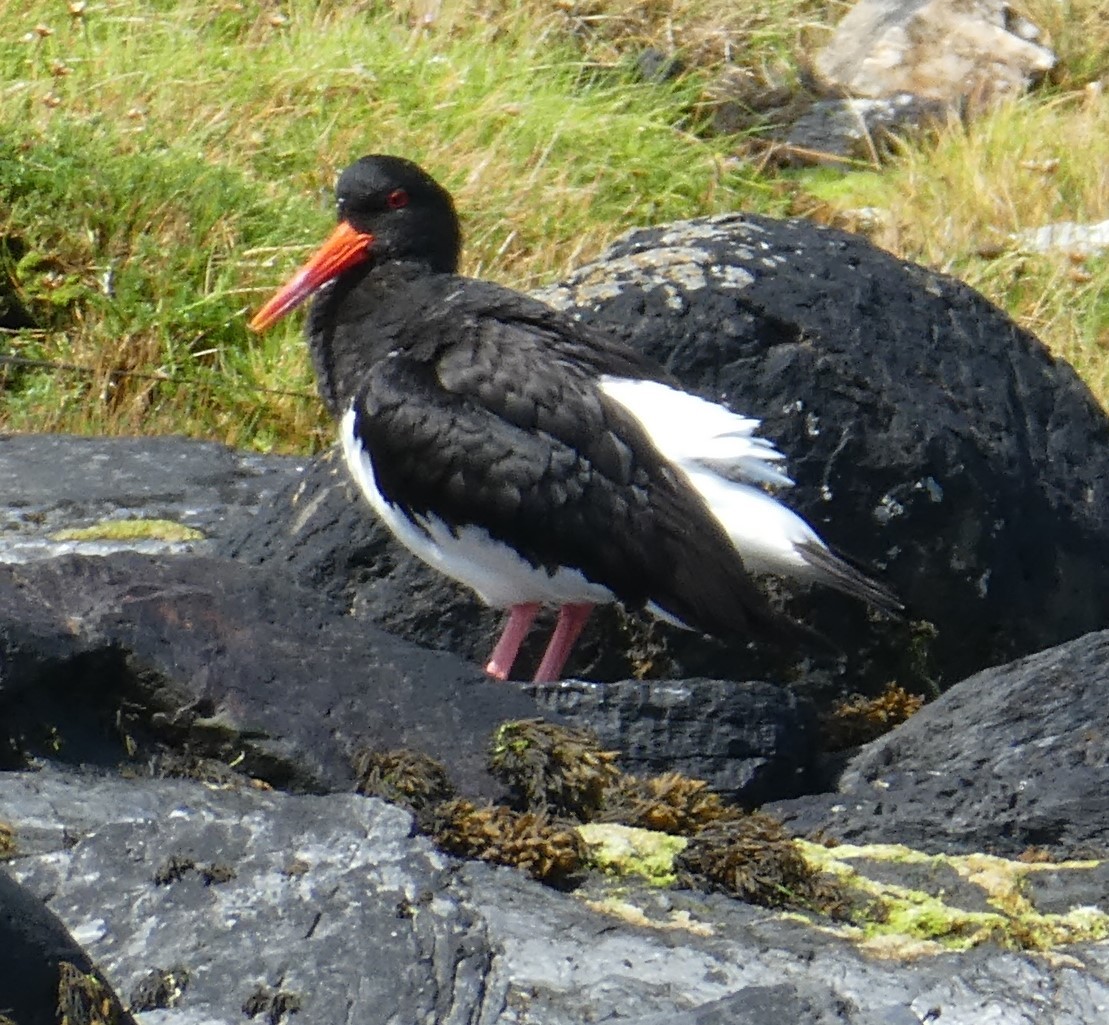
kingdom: Animalia
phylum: Chordata
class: Aves
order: Charadriiformes
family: Haematopodidae
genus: Haematopus
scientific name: Haematopus ostralegus
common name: Eurasian oystercatcher
